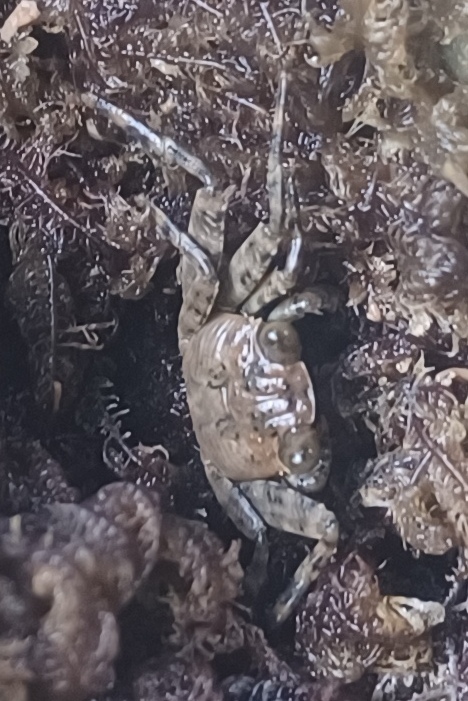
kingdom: Animalia
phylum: Arthropoda
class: Malacostraca
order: Decapoda
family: Grapsidae
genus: Grapsus
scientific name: Grapsus grapsus
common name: Sally lightfoot
